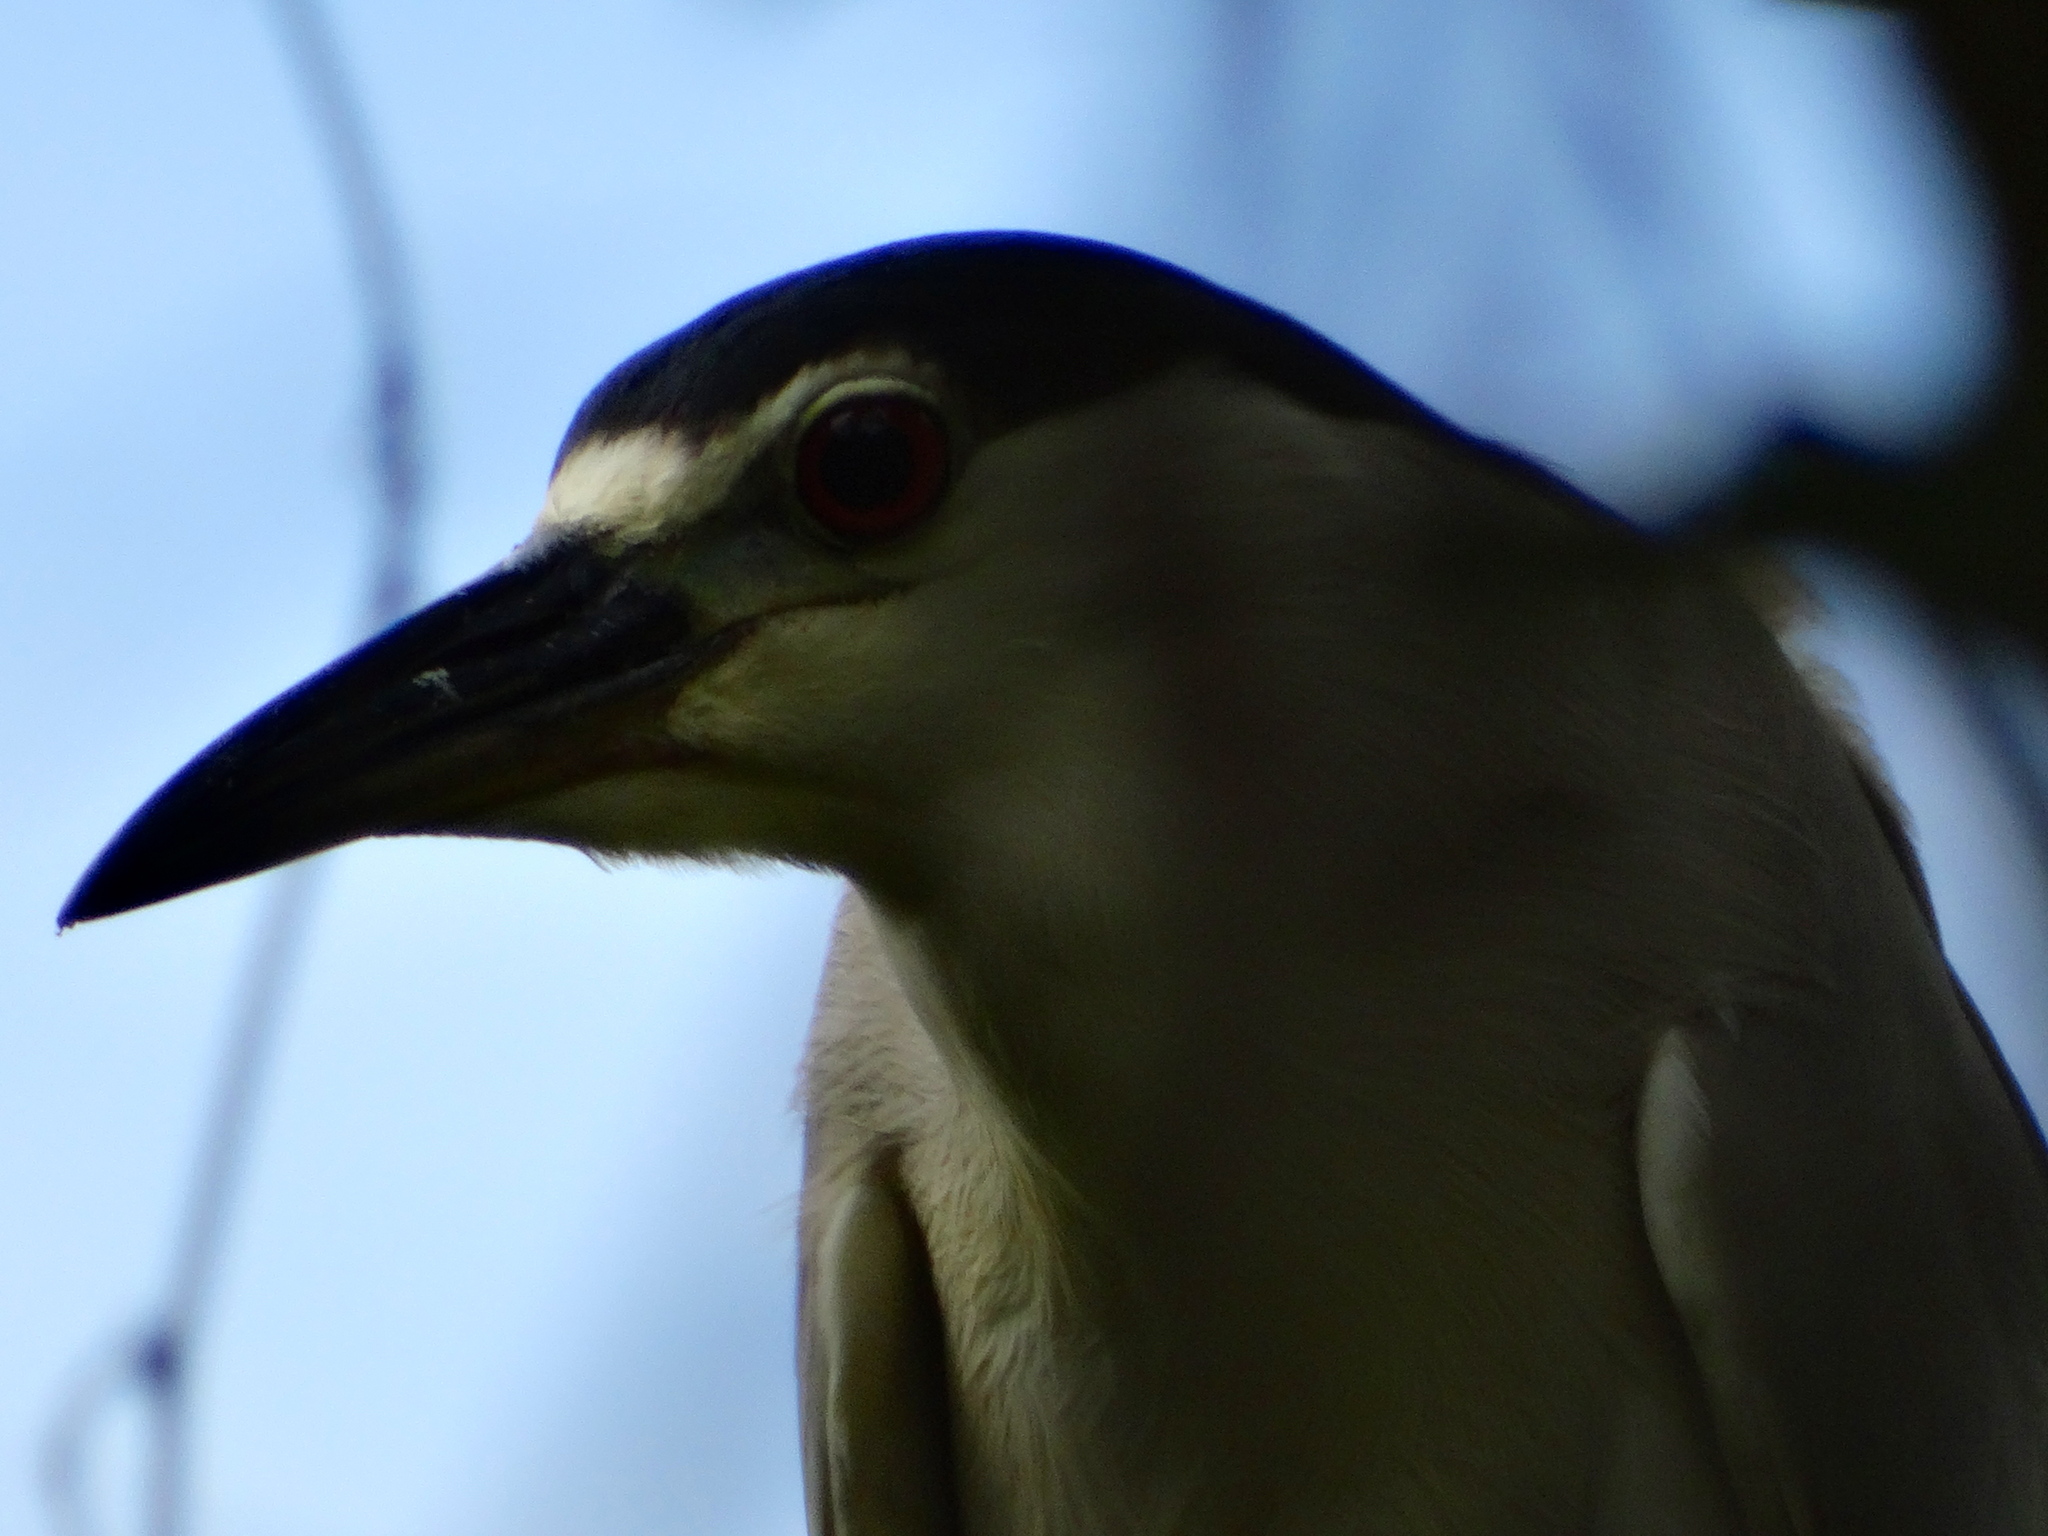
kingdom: Animalia
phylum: Chordata
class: Aves
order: Pelecaniformes
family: Ardeidae
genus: Nycticorax
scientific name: Nycticorax nycticorax
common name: Black-crowned night heron
